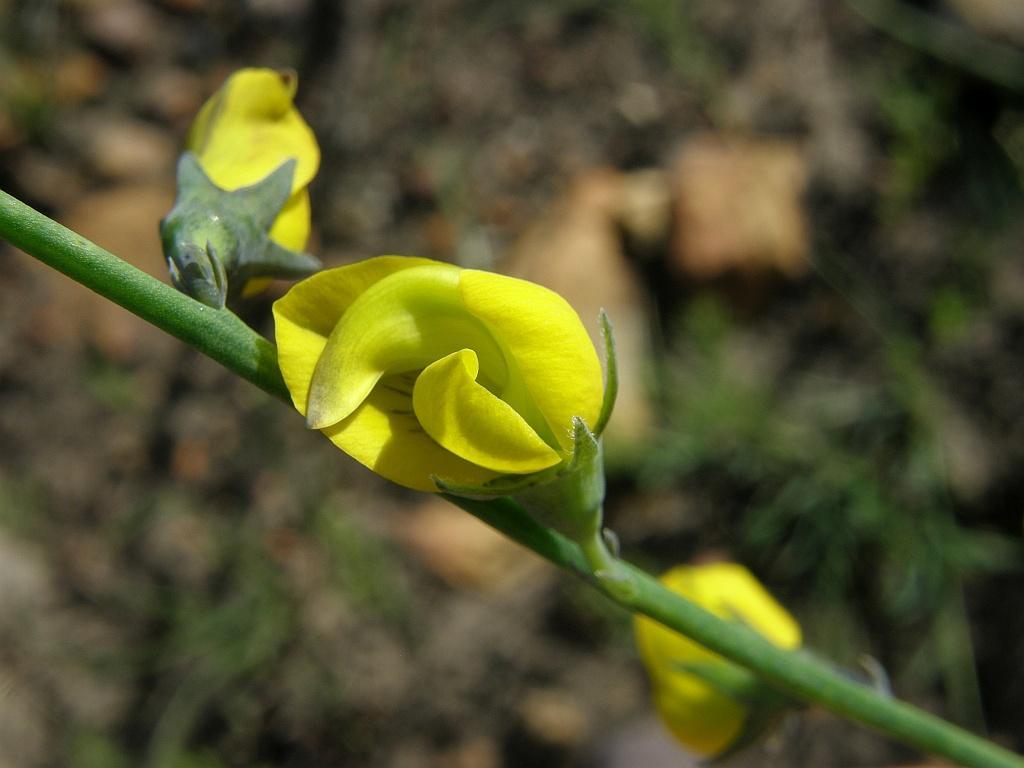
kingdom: Plantae
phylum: Tracheophyta
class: Magnoliopsida
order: Fabales
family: Fabaceae
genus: Lebeckia
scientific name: Lebeckia pauciflora
